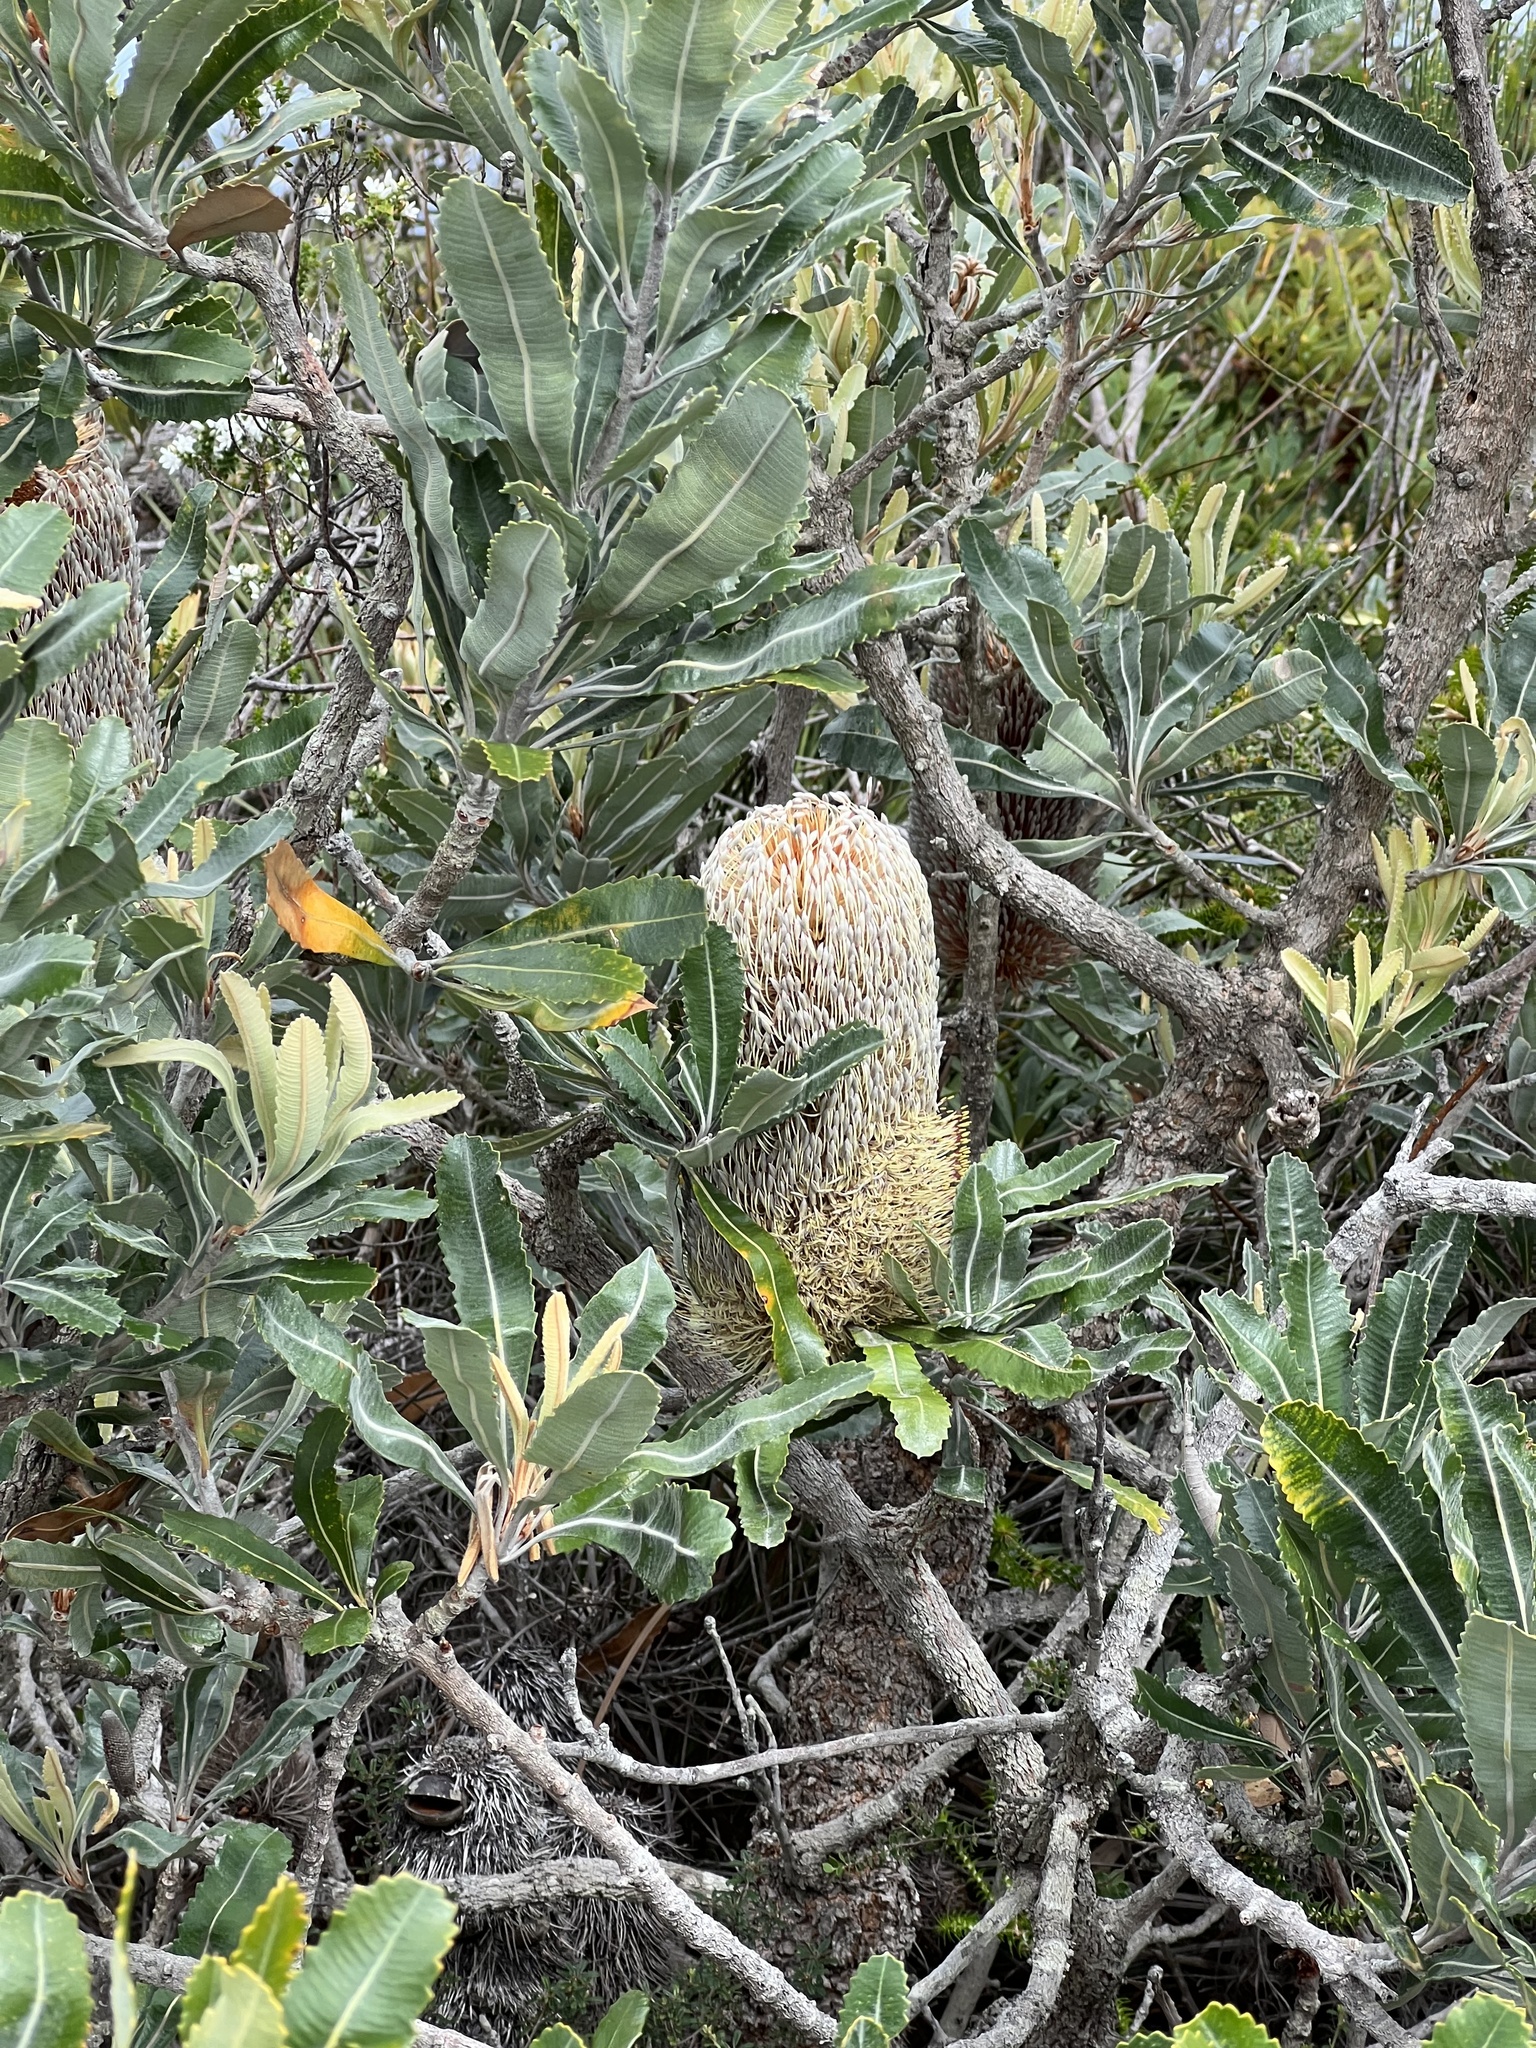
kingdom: Plantae
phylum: Tracheophyta
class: Magnoliopsida
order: Proteales
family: Proteaceae
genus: Banksia
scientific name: Banksia serrata
